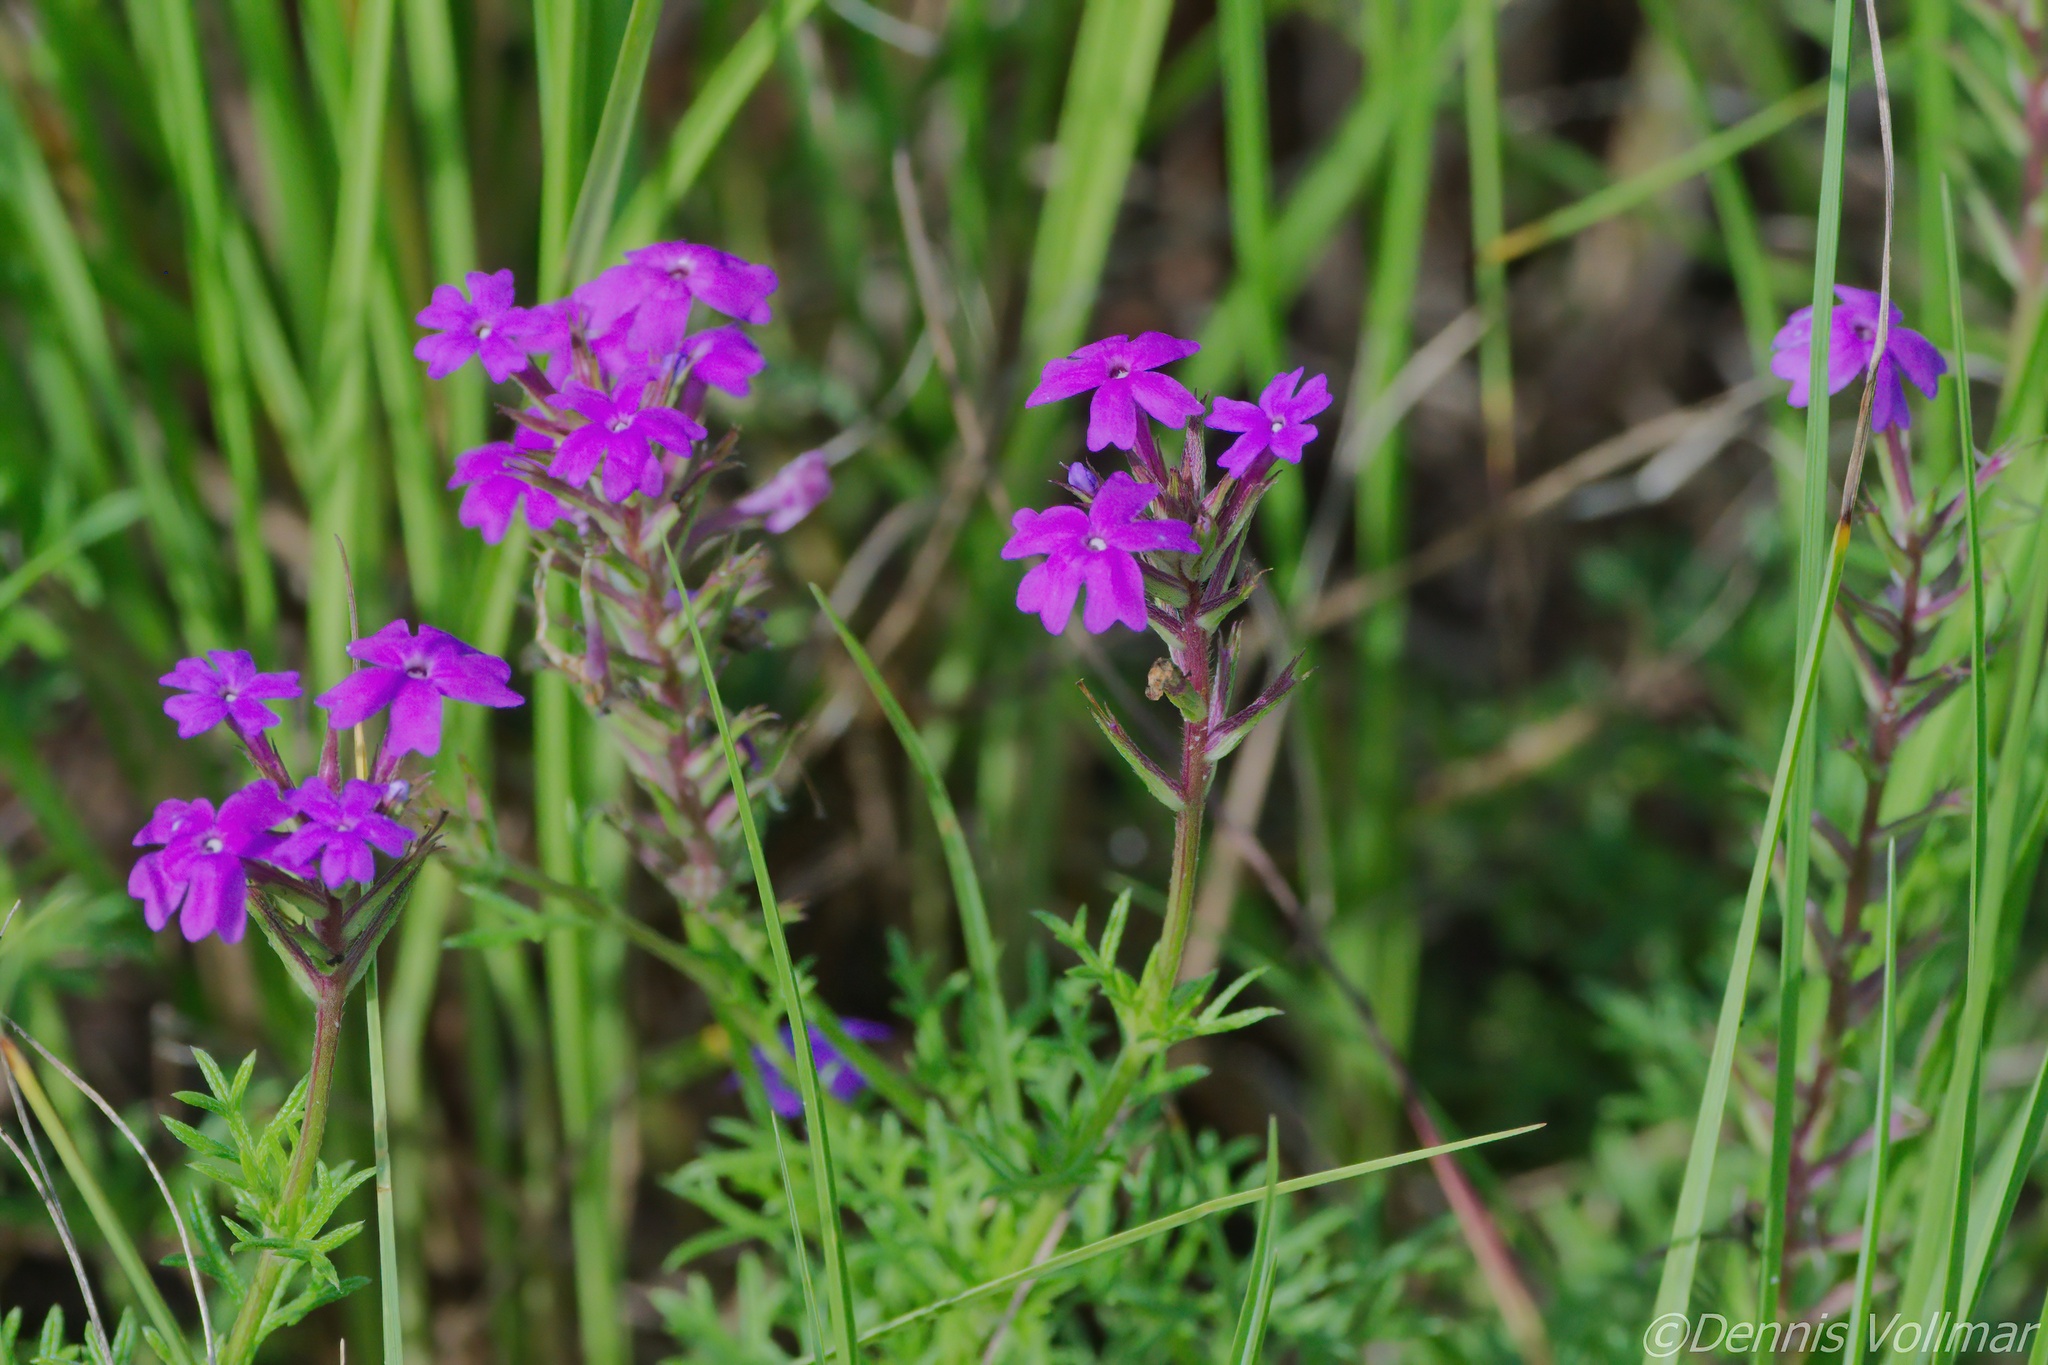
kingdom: Plantae
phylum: Tracheophyta
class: Magnoliopsida
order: Lamiales
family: Verbenaceae
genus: Verbena
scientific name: Verbena aristigera
